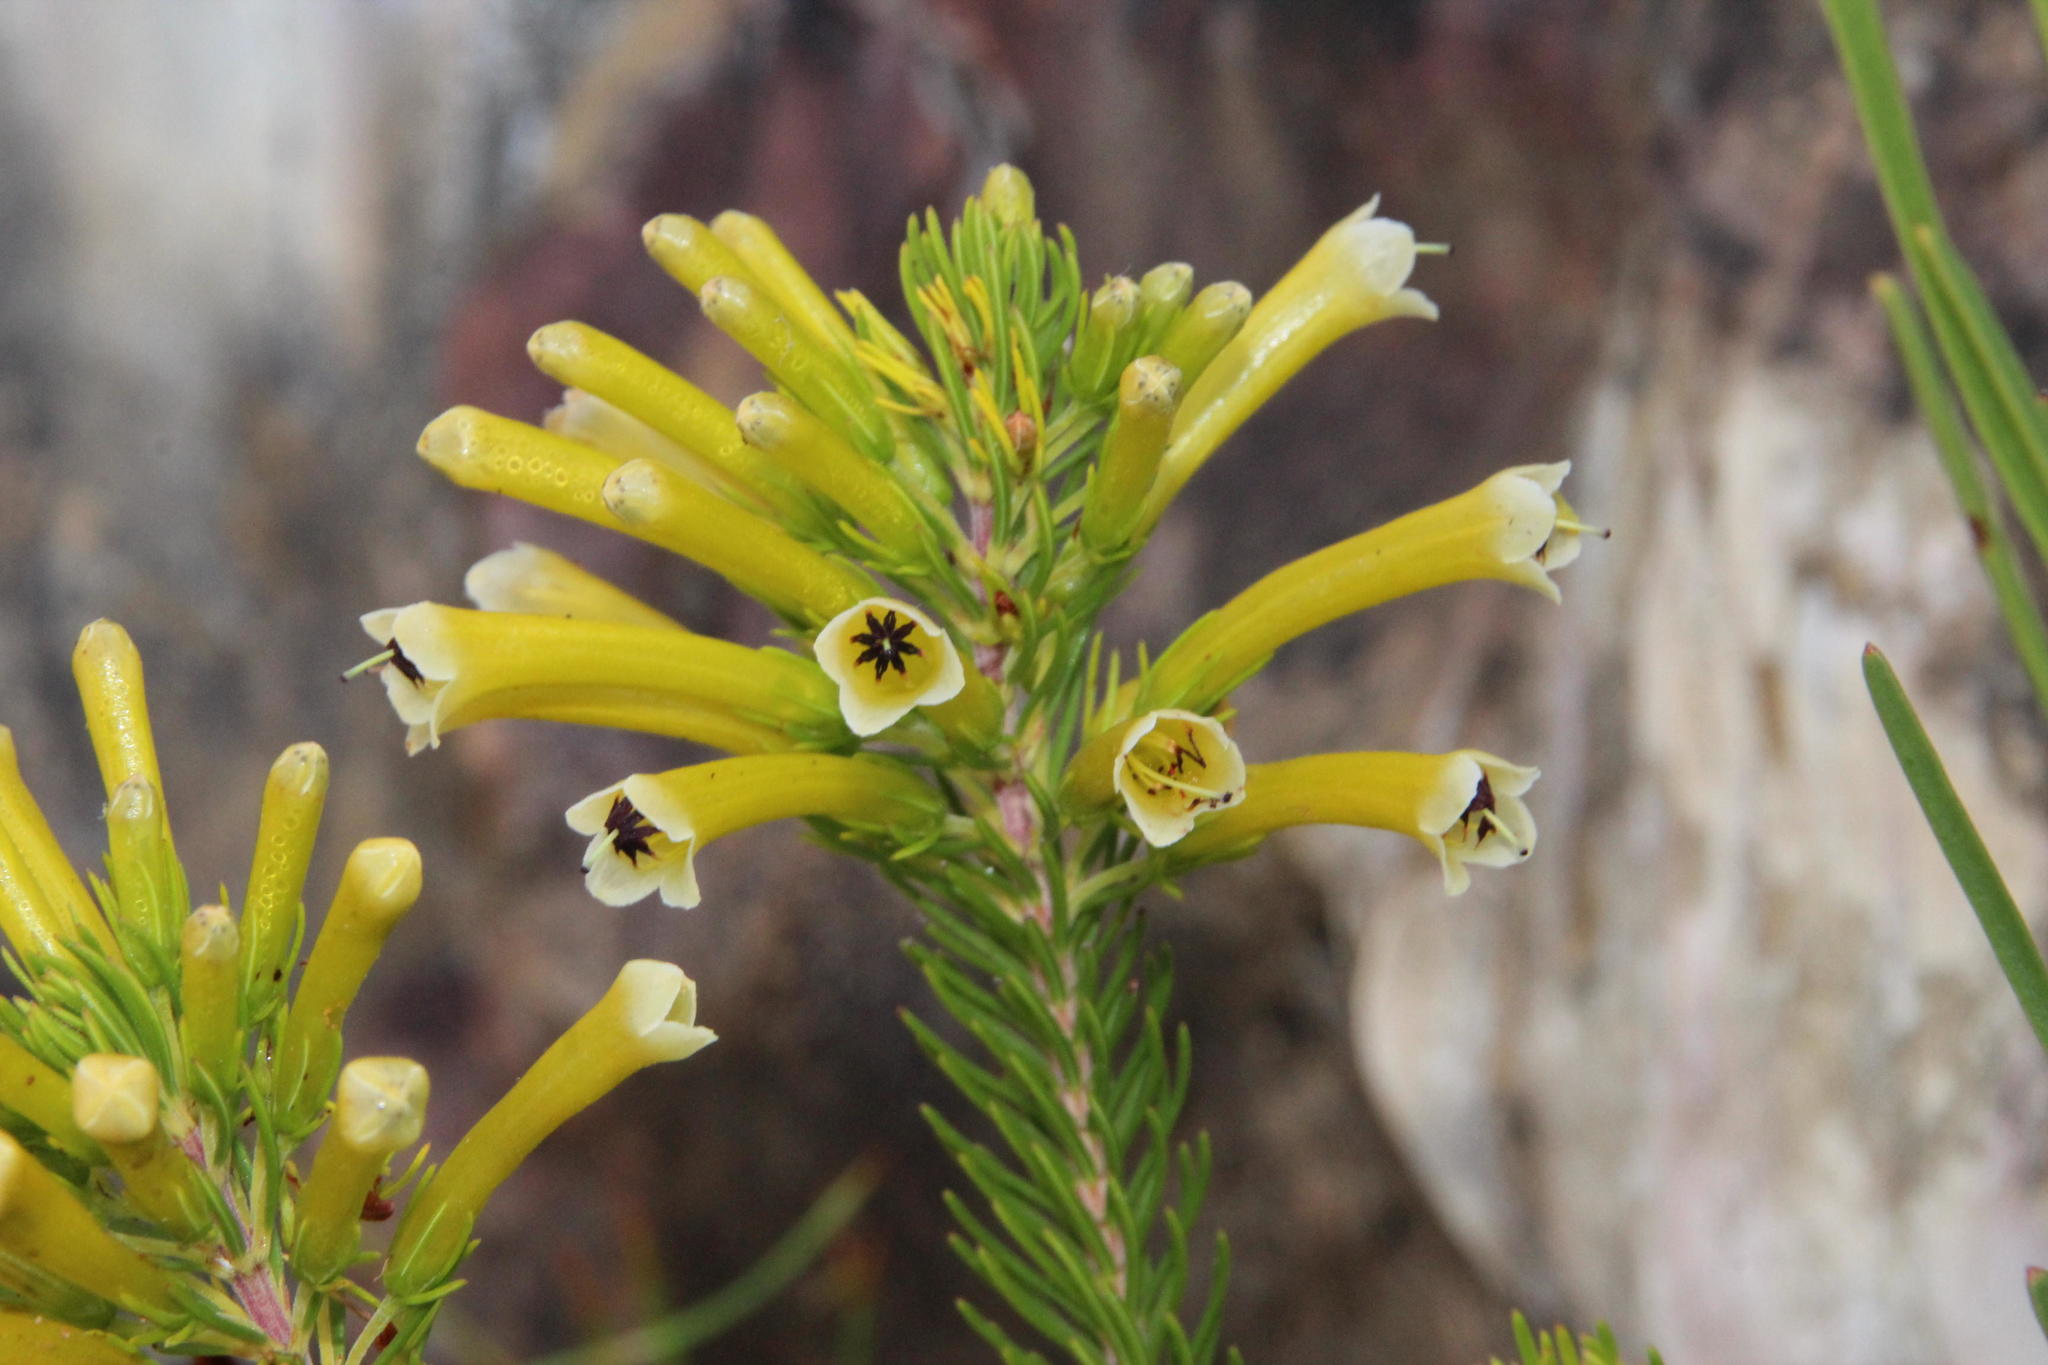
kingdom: Plantae
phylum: Tracheophyta
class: Magnoliopsida
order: Ericales
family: Ericaceae
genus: Erica
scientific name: Erica pinea
